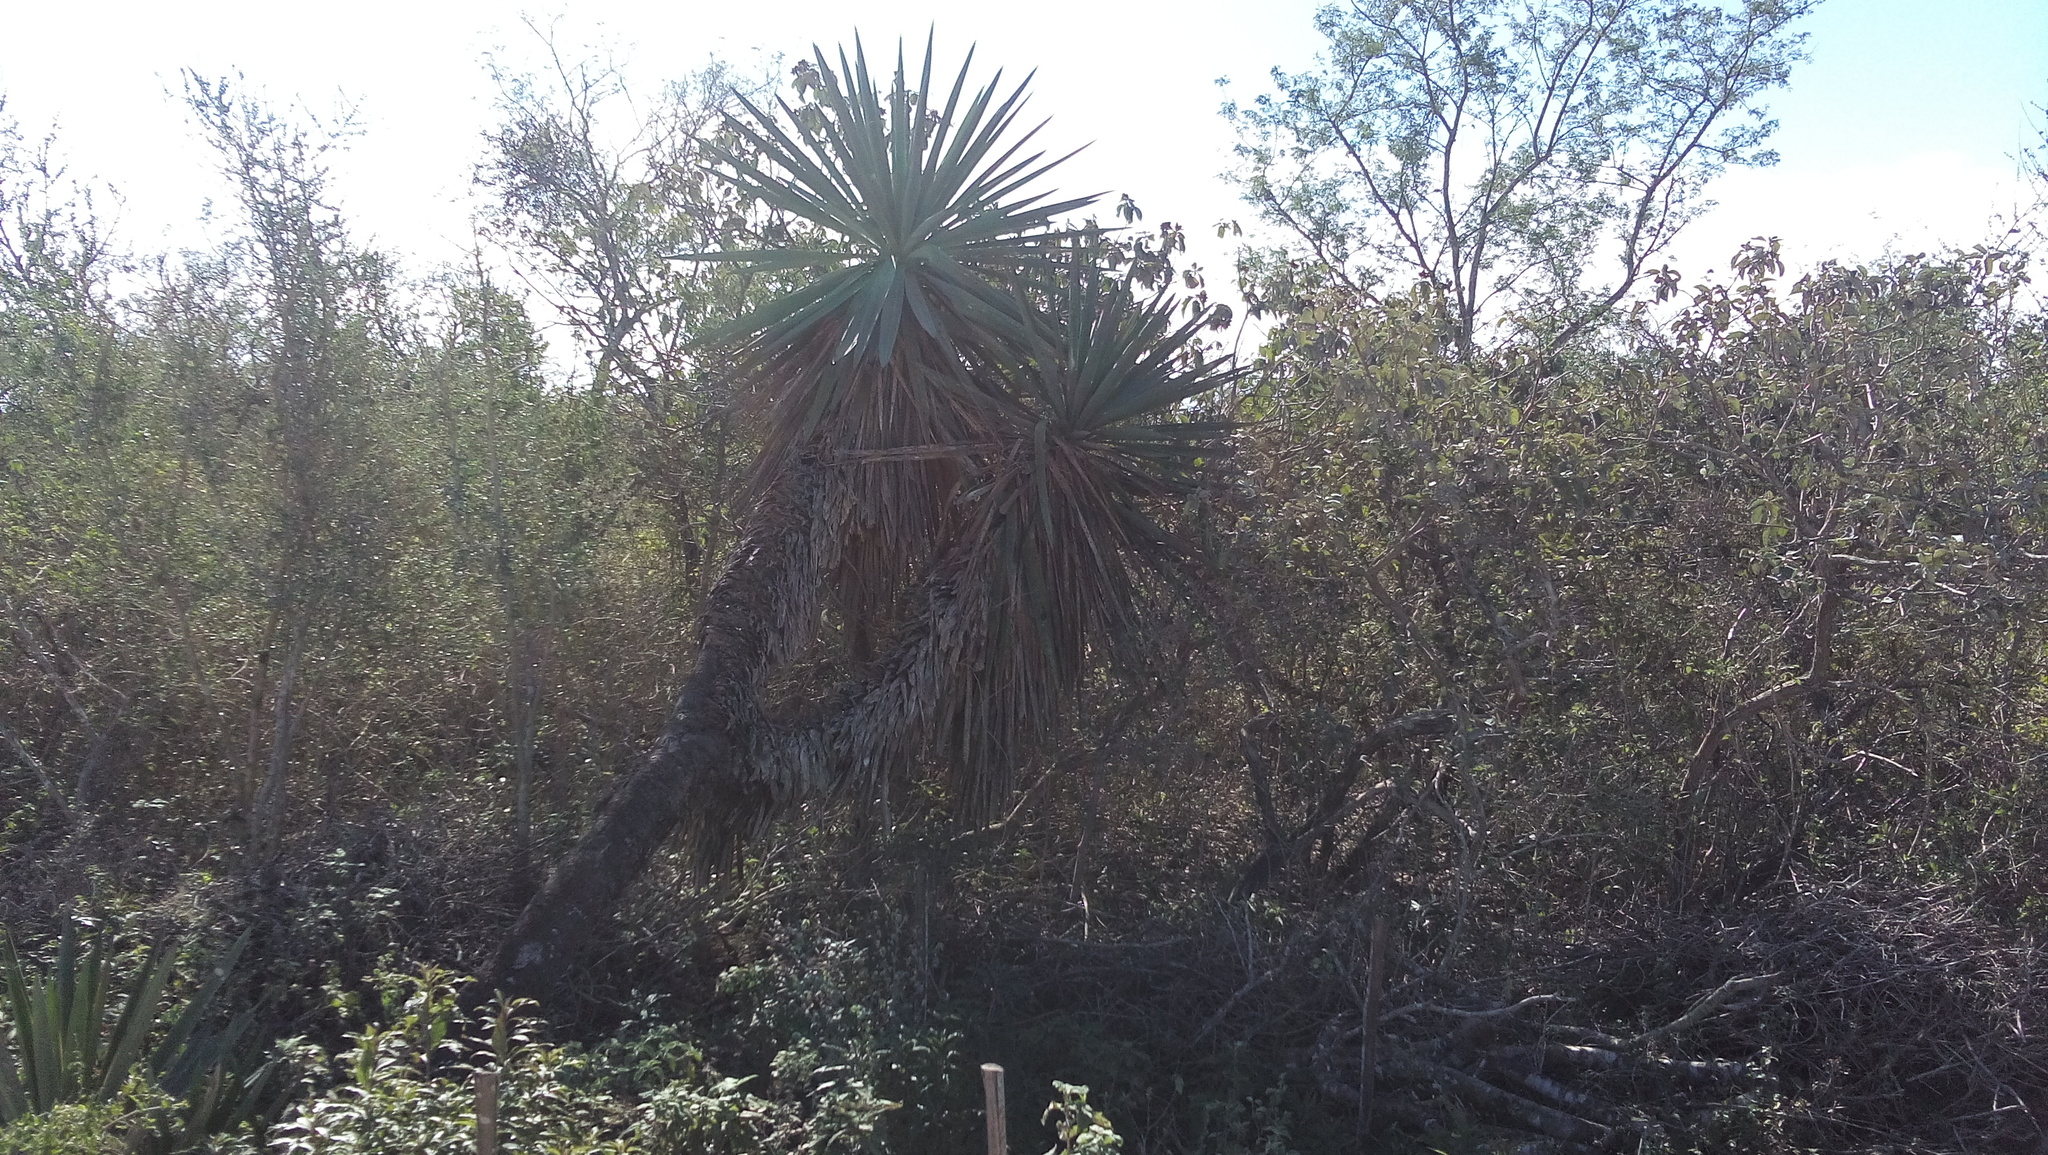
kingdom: Plantae
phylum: Tracheophyta
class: Liliopsida
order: Asparagales
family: Asparagaceae
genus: Yucca
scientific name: Yucca treculiana
